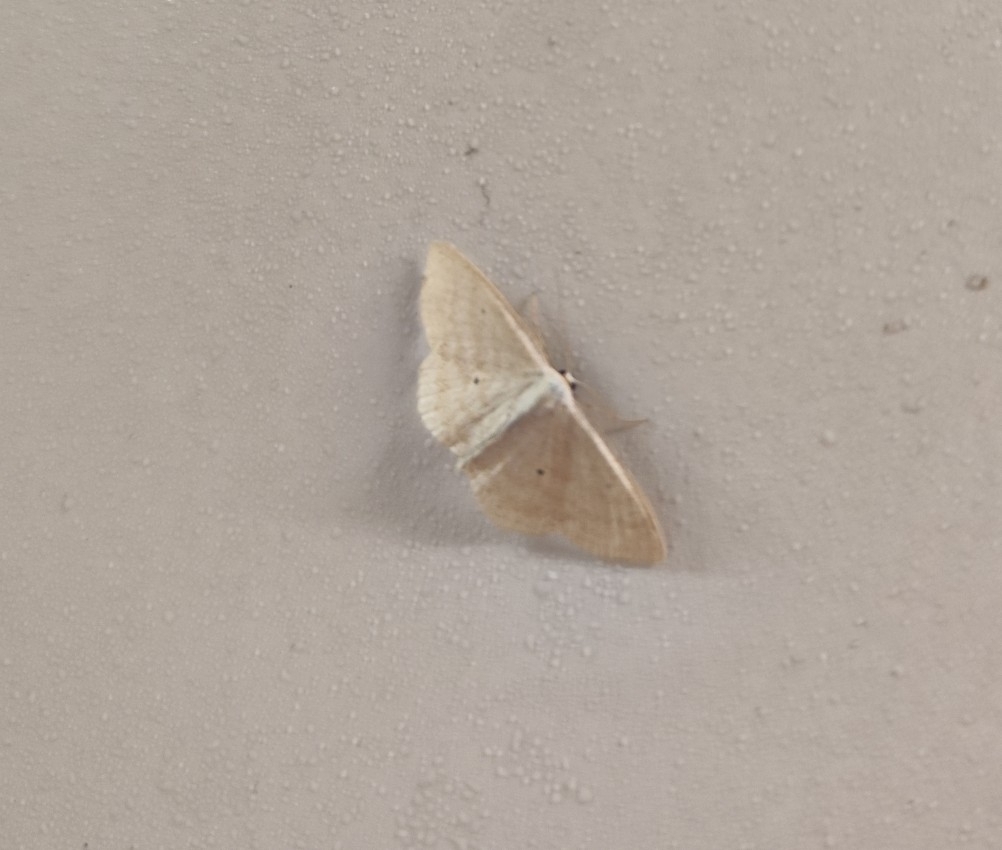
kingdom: Animalia
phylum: Arthropoda
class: Insecta
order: Lepidoptera
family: Geometridae
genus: Scopula
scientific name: Scopula immutata
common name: Lesser cream wave
